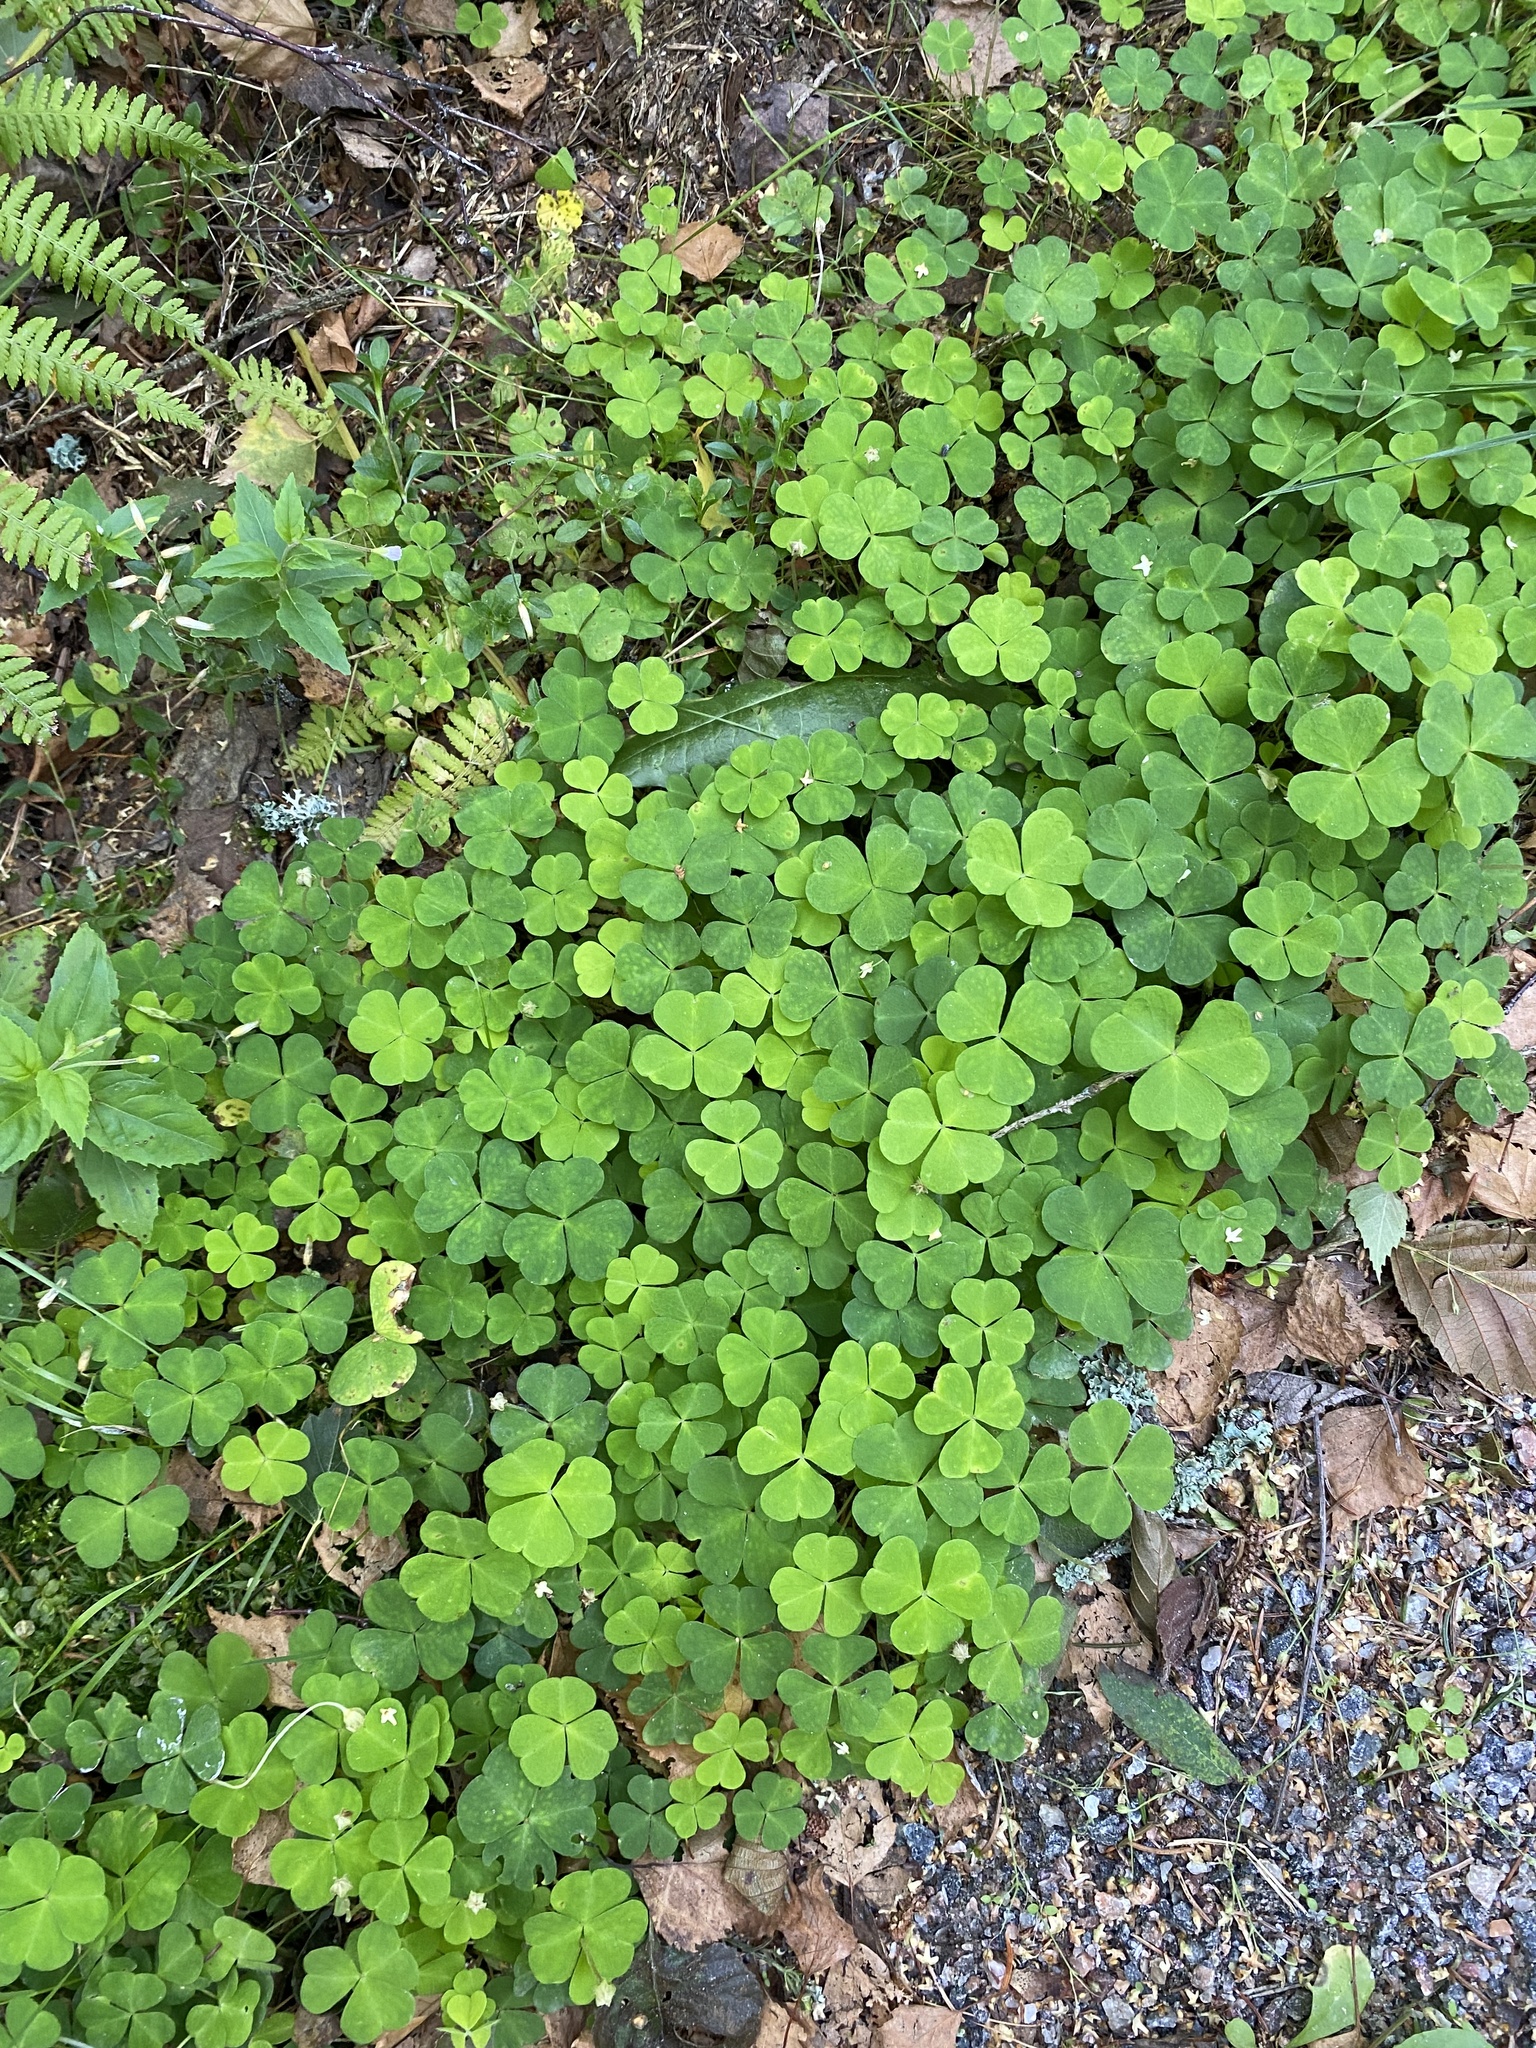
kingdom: Plantae
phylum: Tracheophyta
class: Magnoliopsida
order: Oxalidales
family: Oxalidaceae
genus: Oxalis
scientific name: Oxalis acetosella
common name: Wood-sorrel
